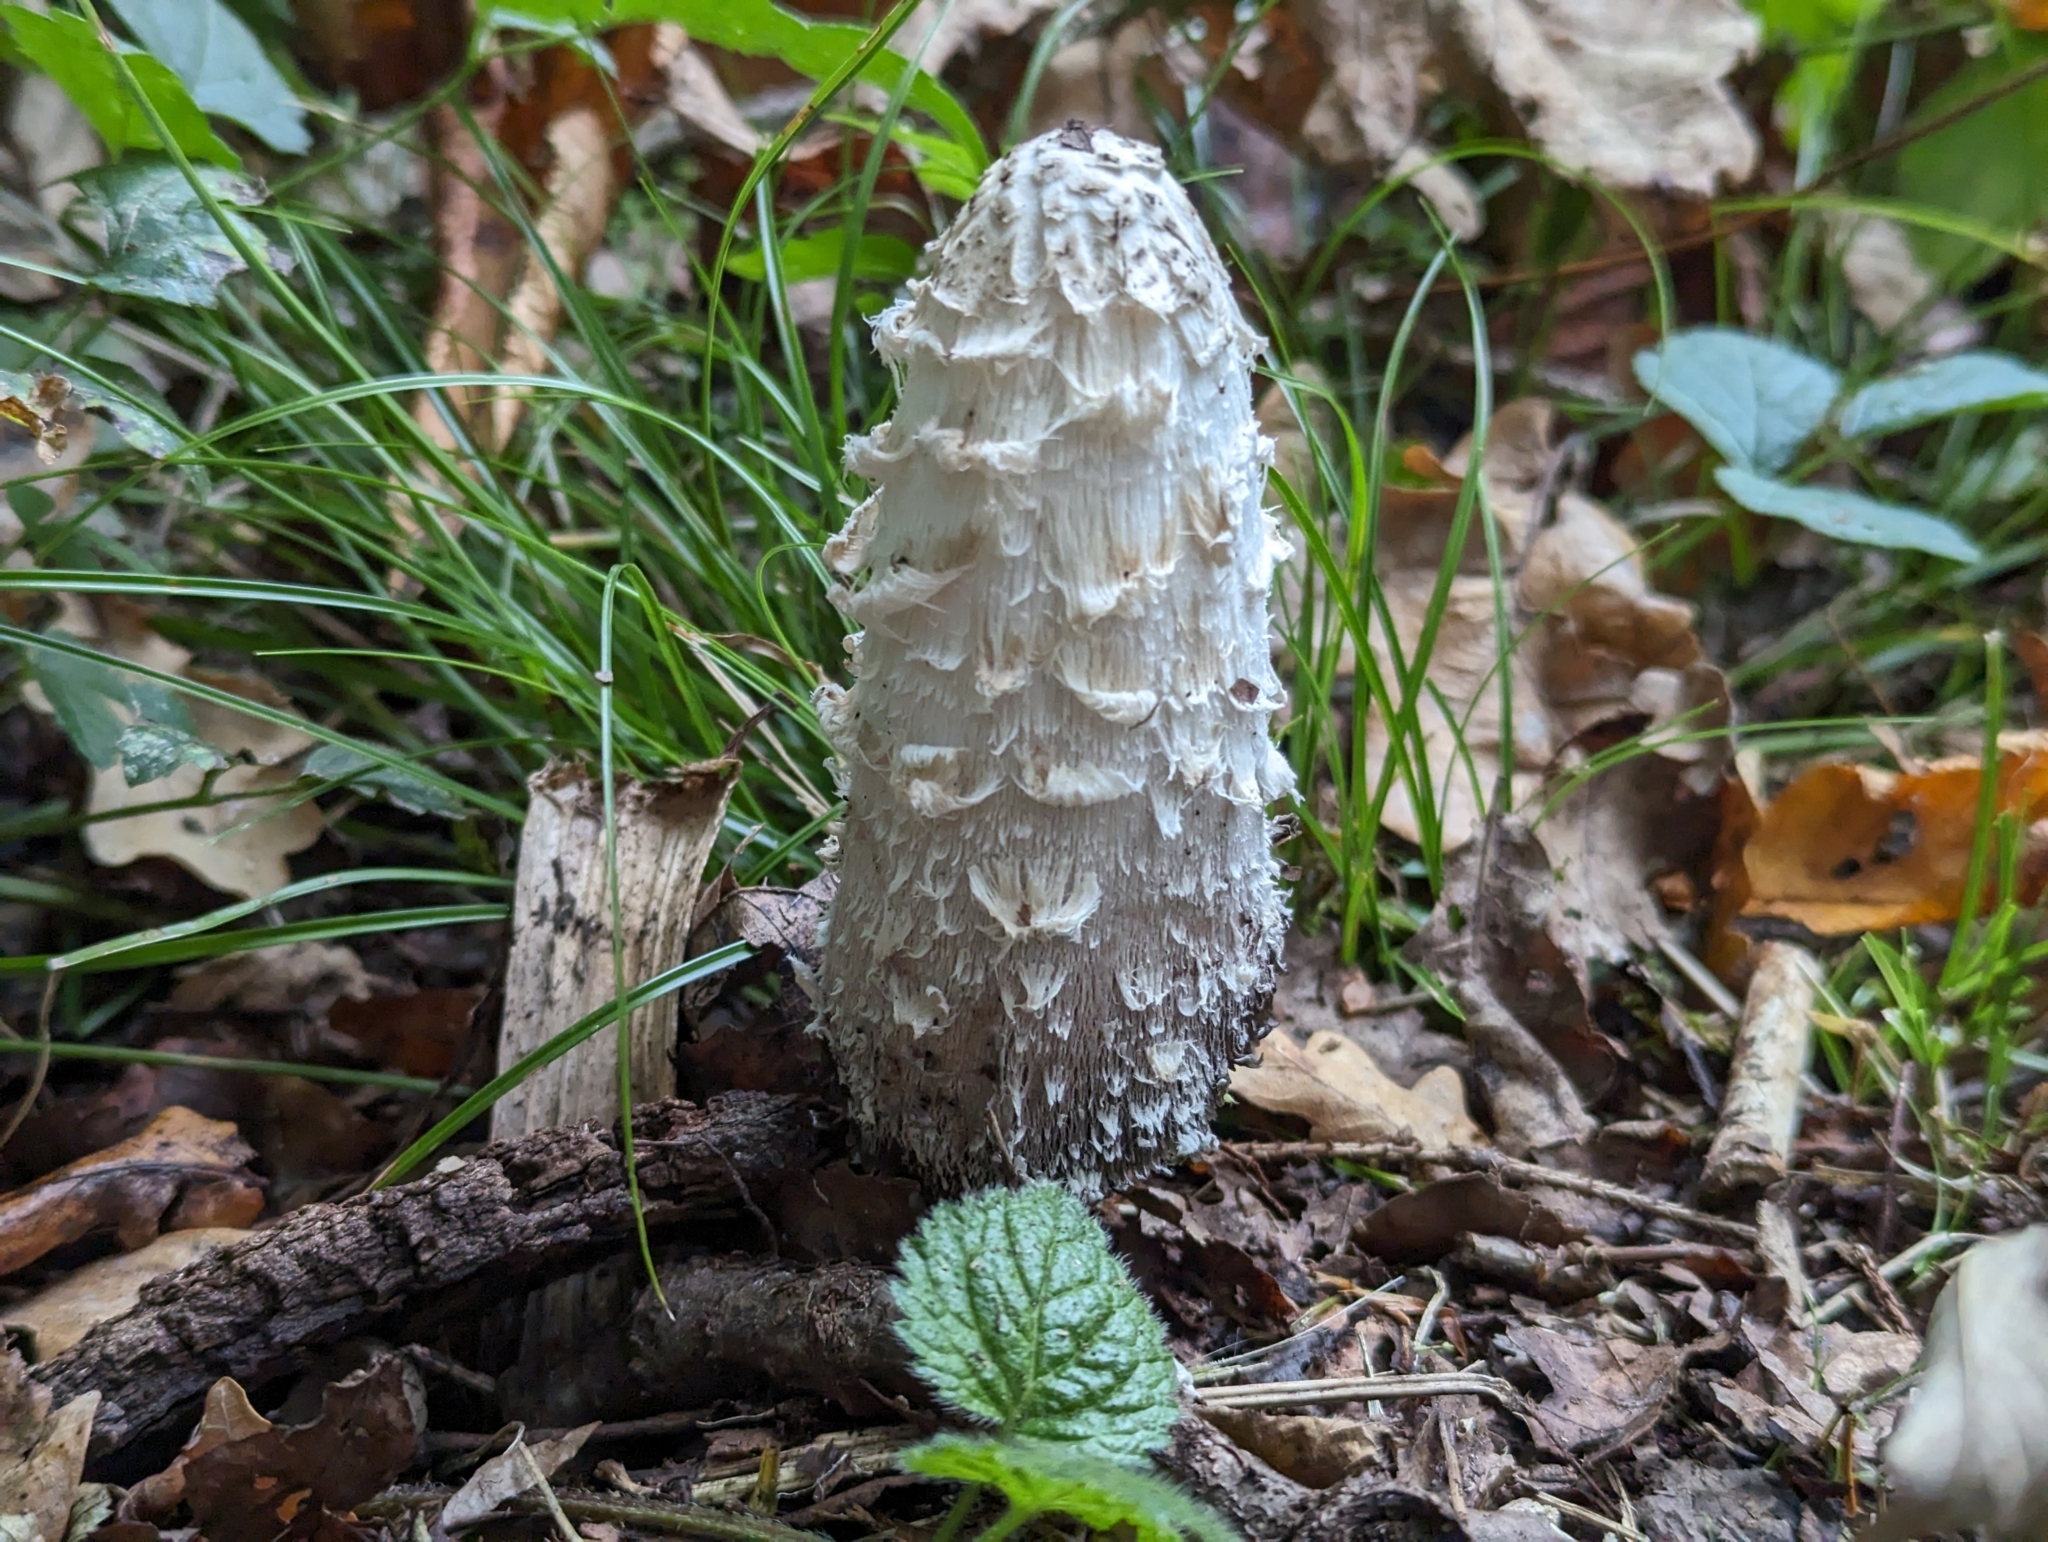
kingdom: Fungi
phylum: Basidiomycota
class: Agaricomycetes
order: Agaricales
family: Agaricaceae
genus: Coprinus
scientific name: Coprinus comatus
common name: Lawyer's wig
